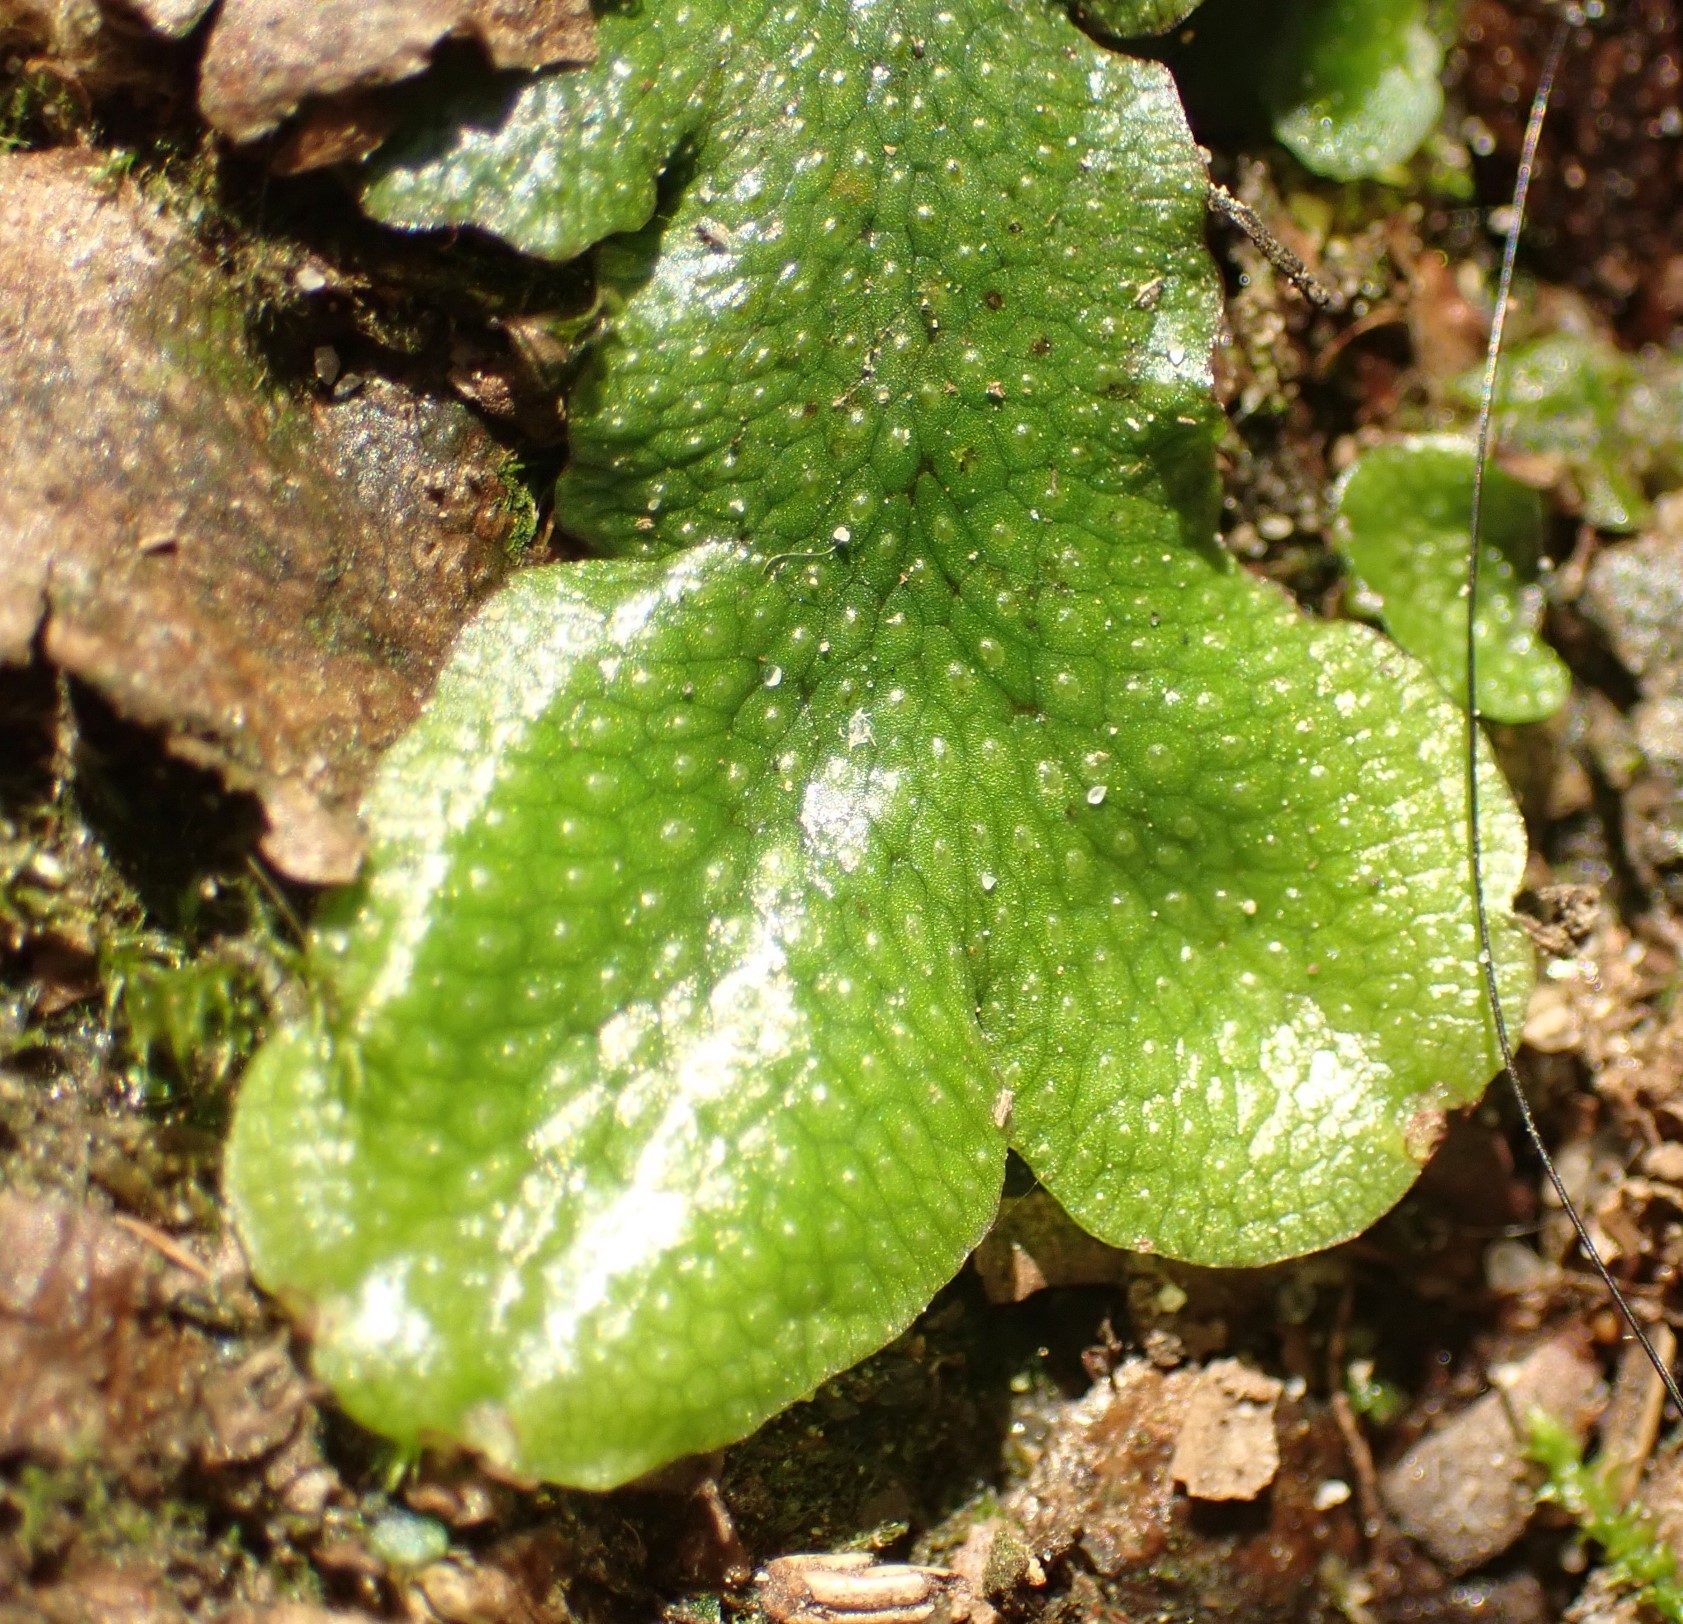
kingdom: Plantae
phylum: Marchantiophyta
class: Marchantiopsida
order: Marchantiales
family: Conocephalaceae
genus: Conocephalum
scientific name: Conocephalum conicum
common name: Great scented liverwort
